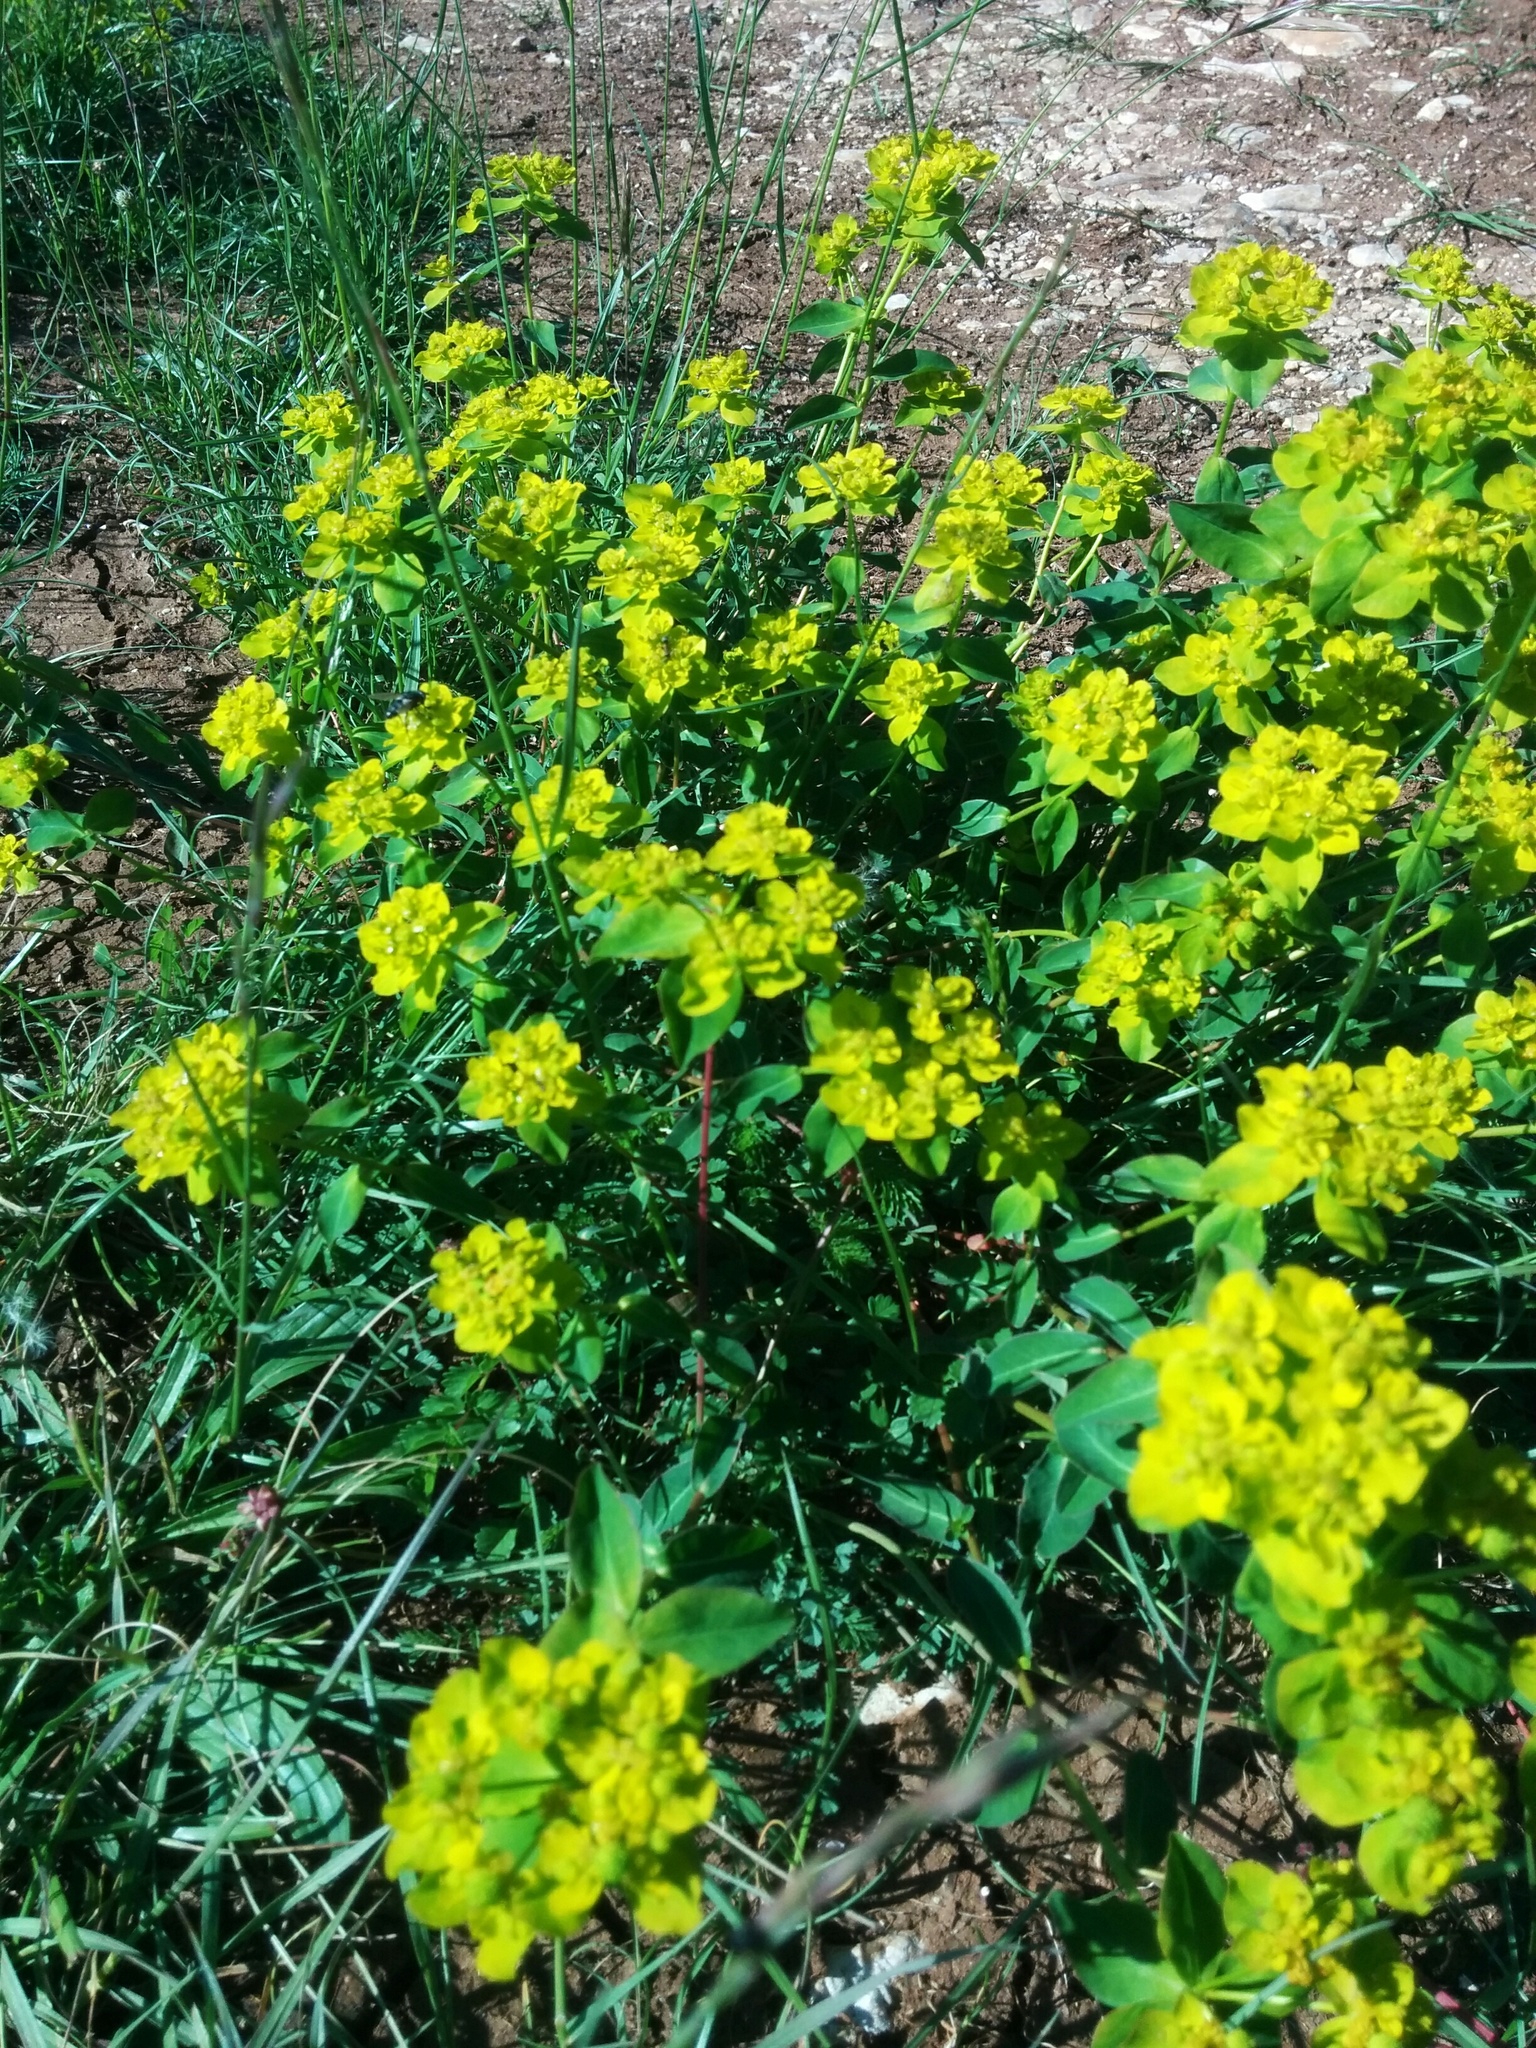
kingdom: Plantae
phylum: Tracheophyta
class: Magnoliopsida
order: Malpighiales
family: Euphorbiaceae
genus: Euphorbia
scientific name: Euphorbia verrucosa
